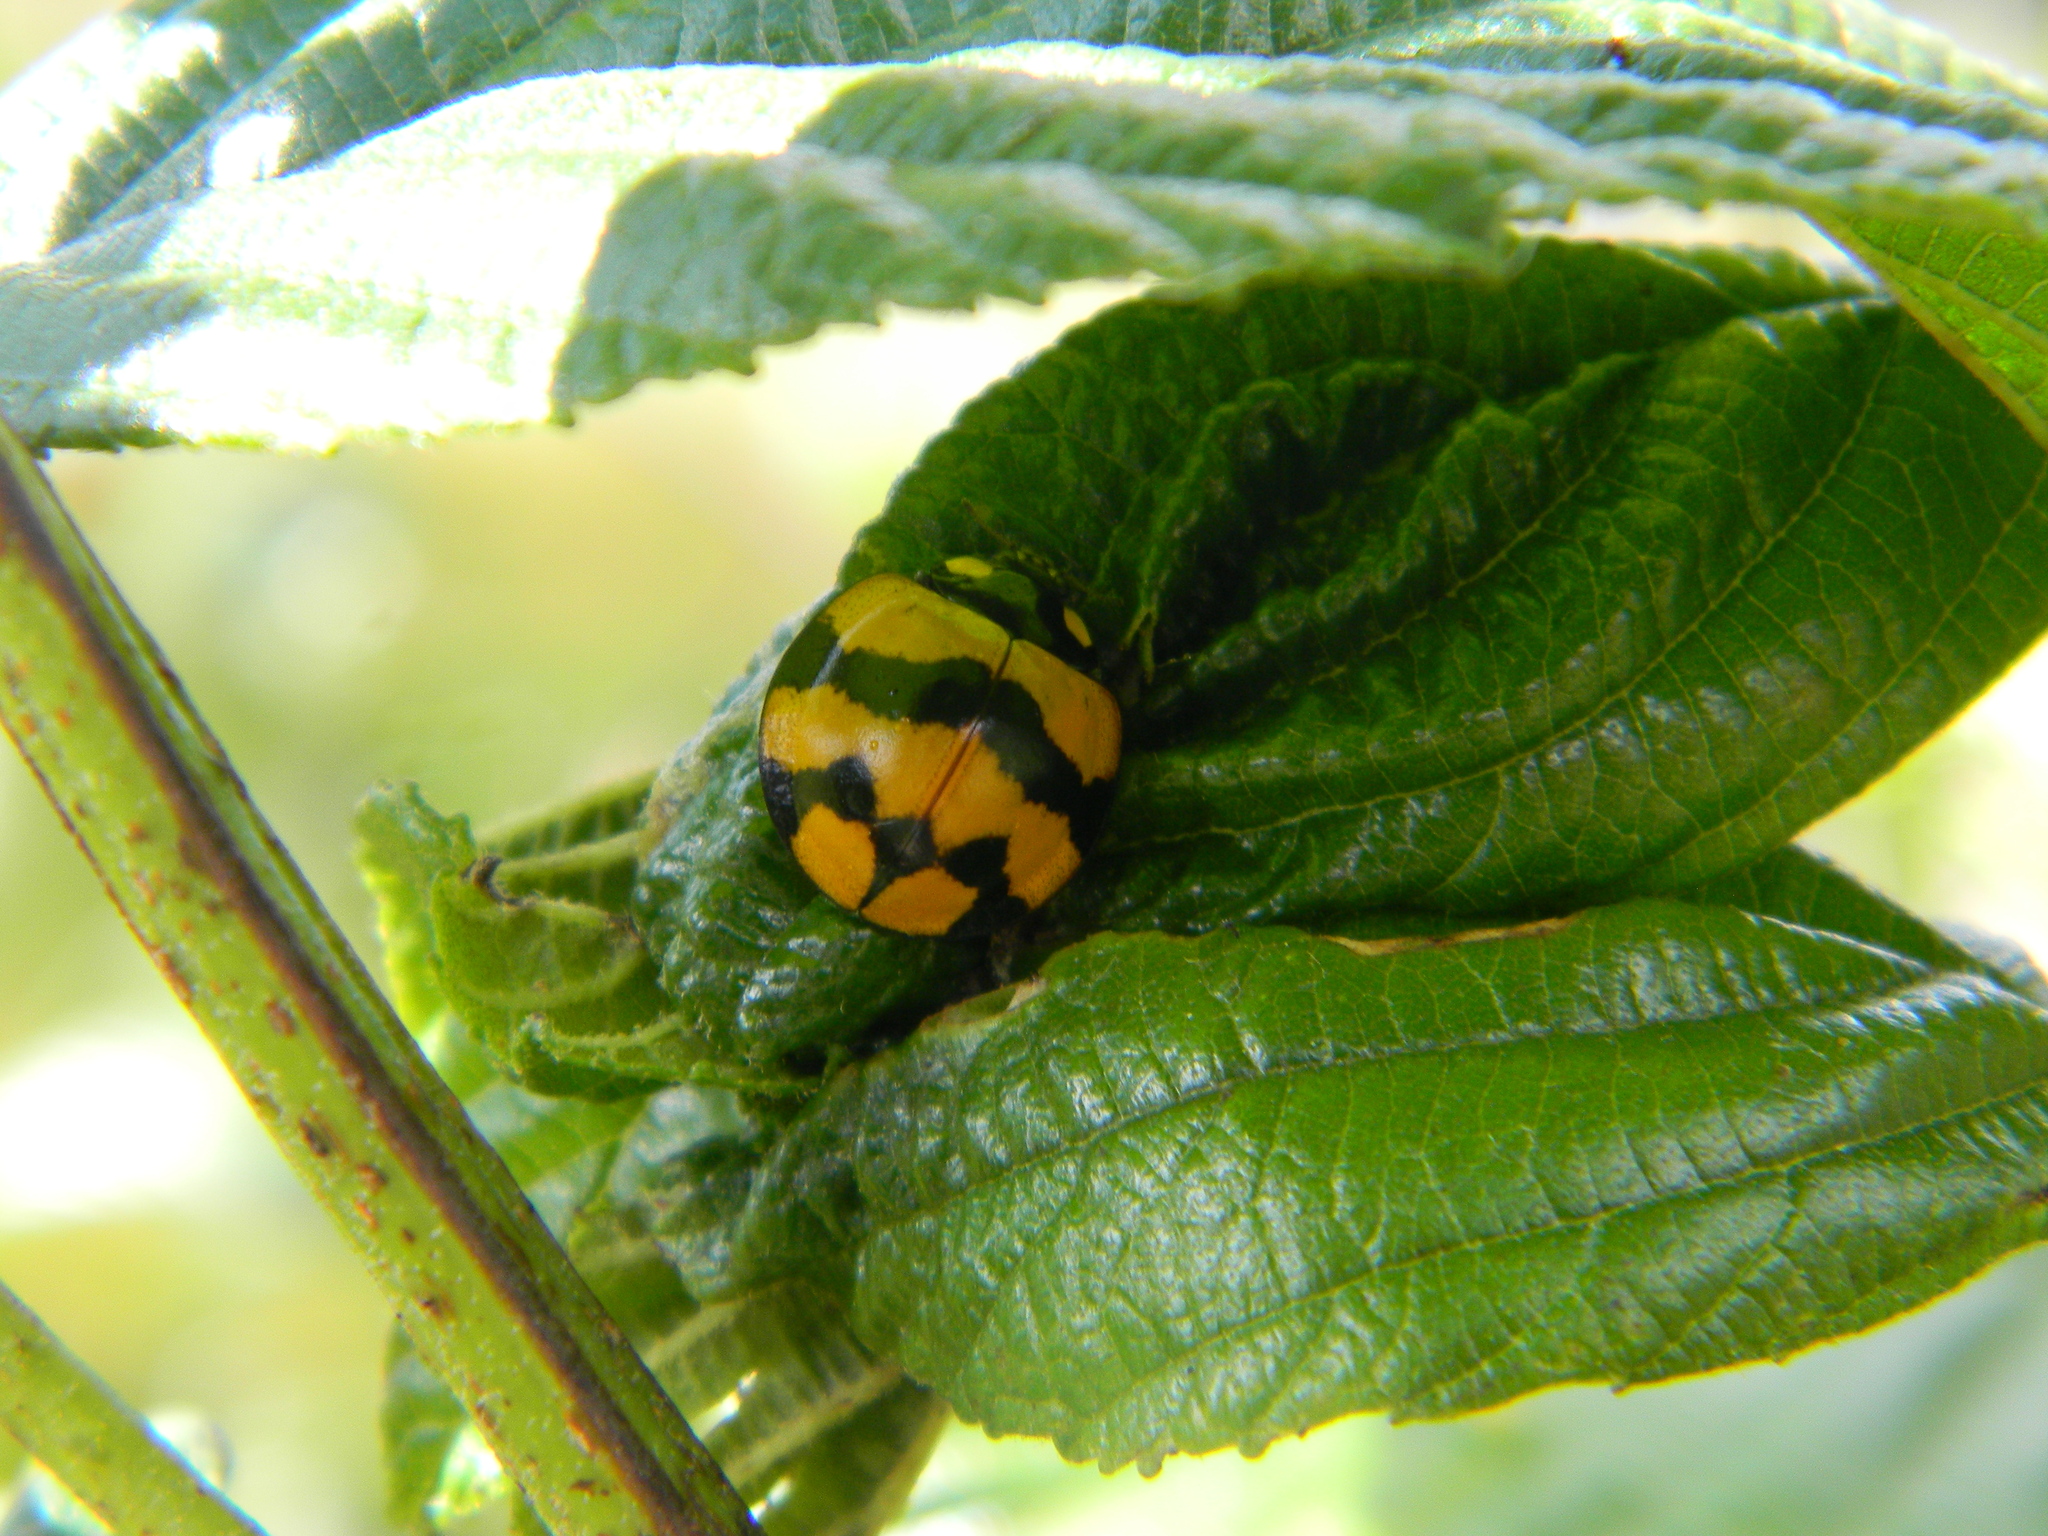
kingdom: Animalia
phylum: Arthropoda
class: Insecta
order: Coleoptera
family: Coccinellidae
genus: Neda
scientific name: Neda norrisi
